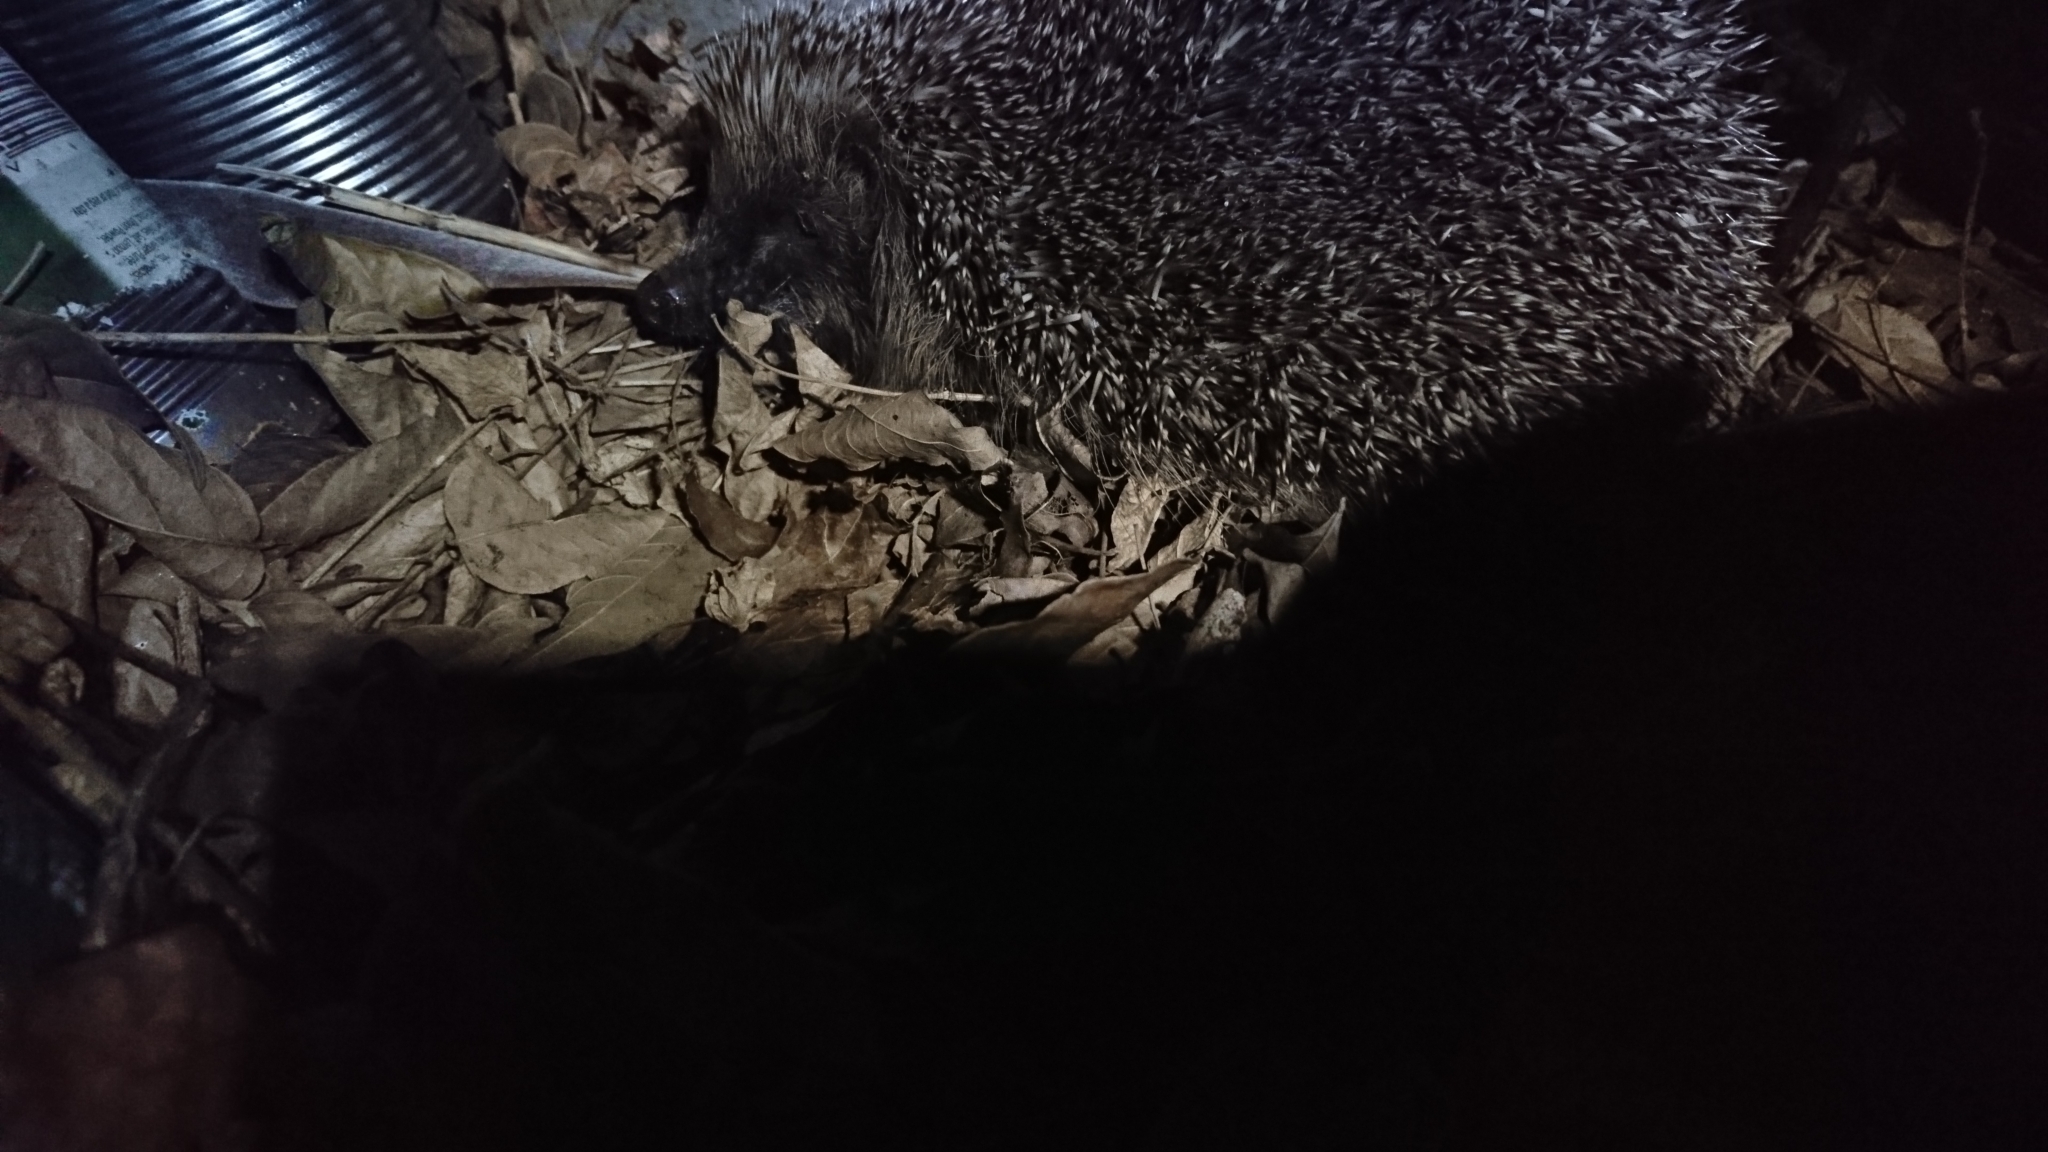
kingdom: Animalia
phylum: Chordata
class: Mammalia
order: Erinaceomorpha
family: Erinaceidae
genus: Erinaceus
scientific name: Erinaceus europaeus
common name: West european hedgehog
